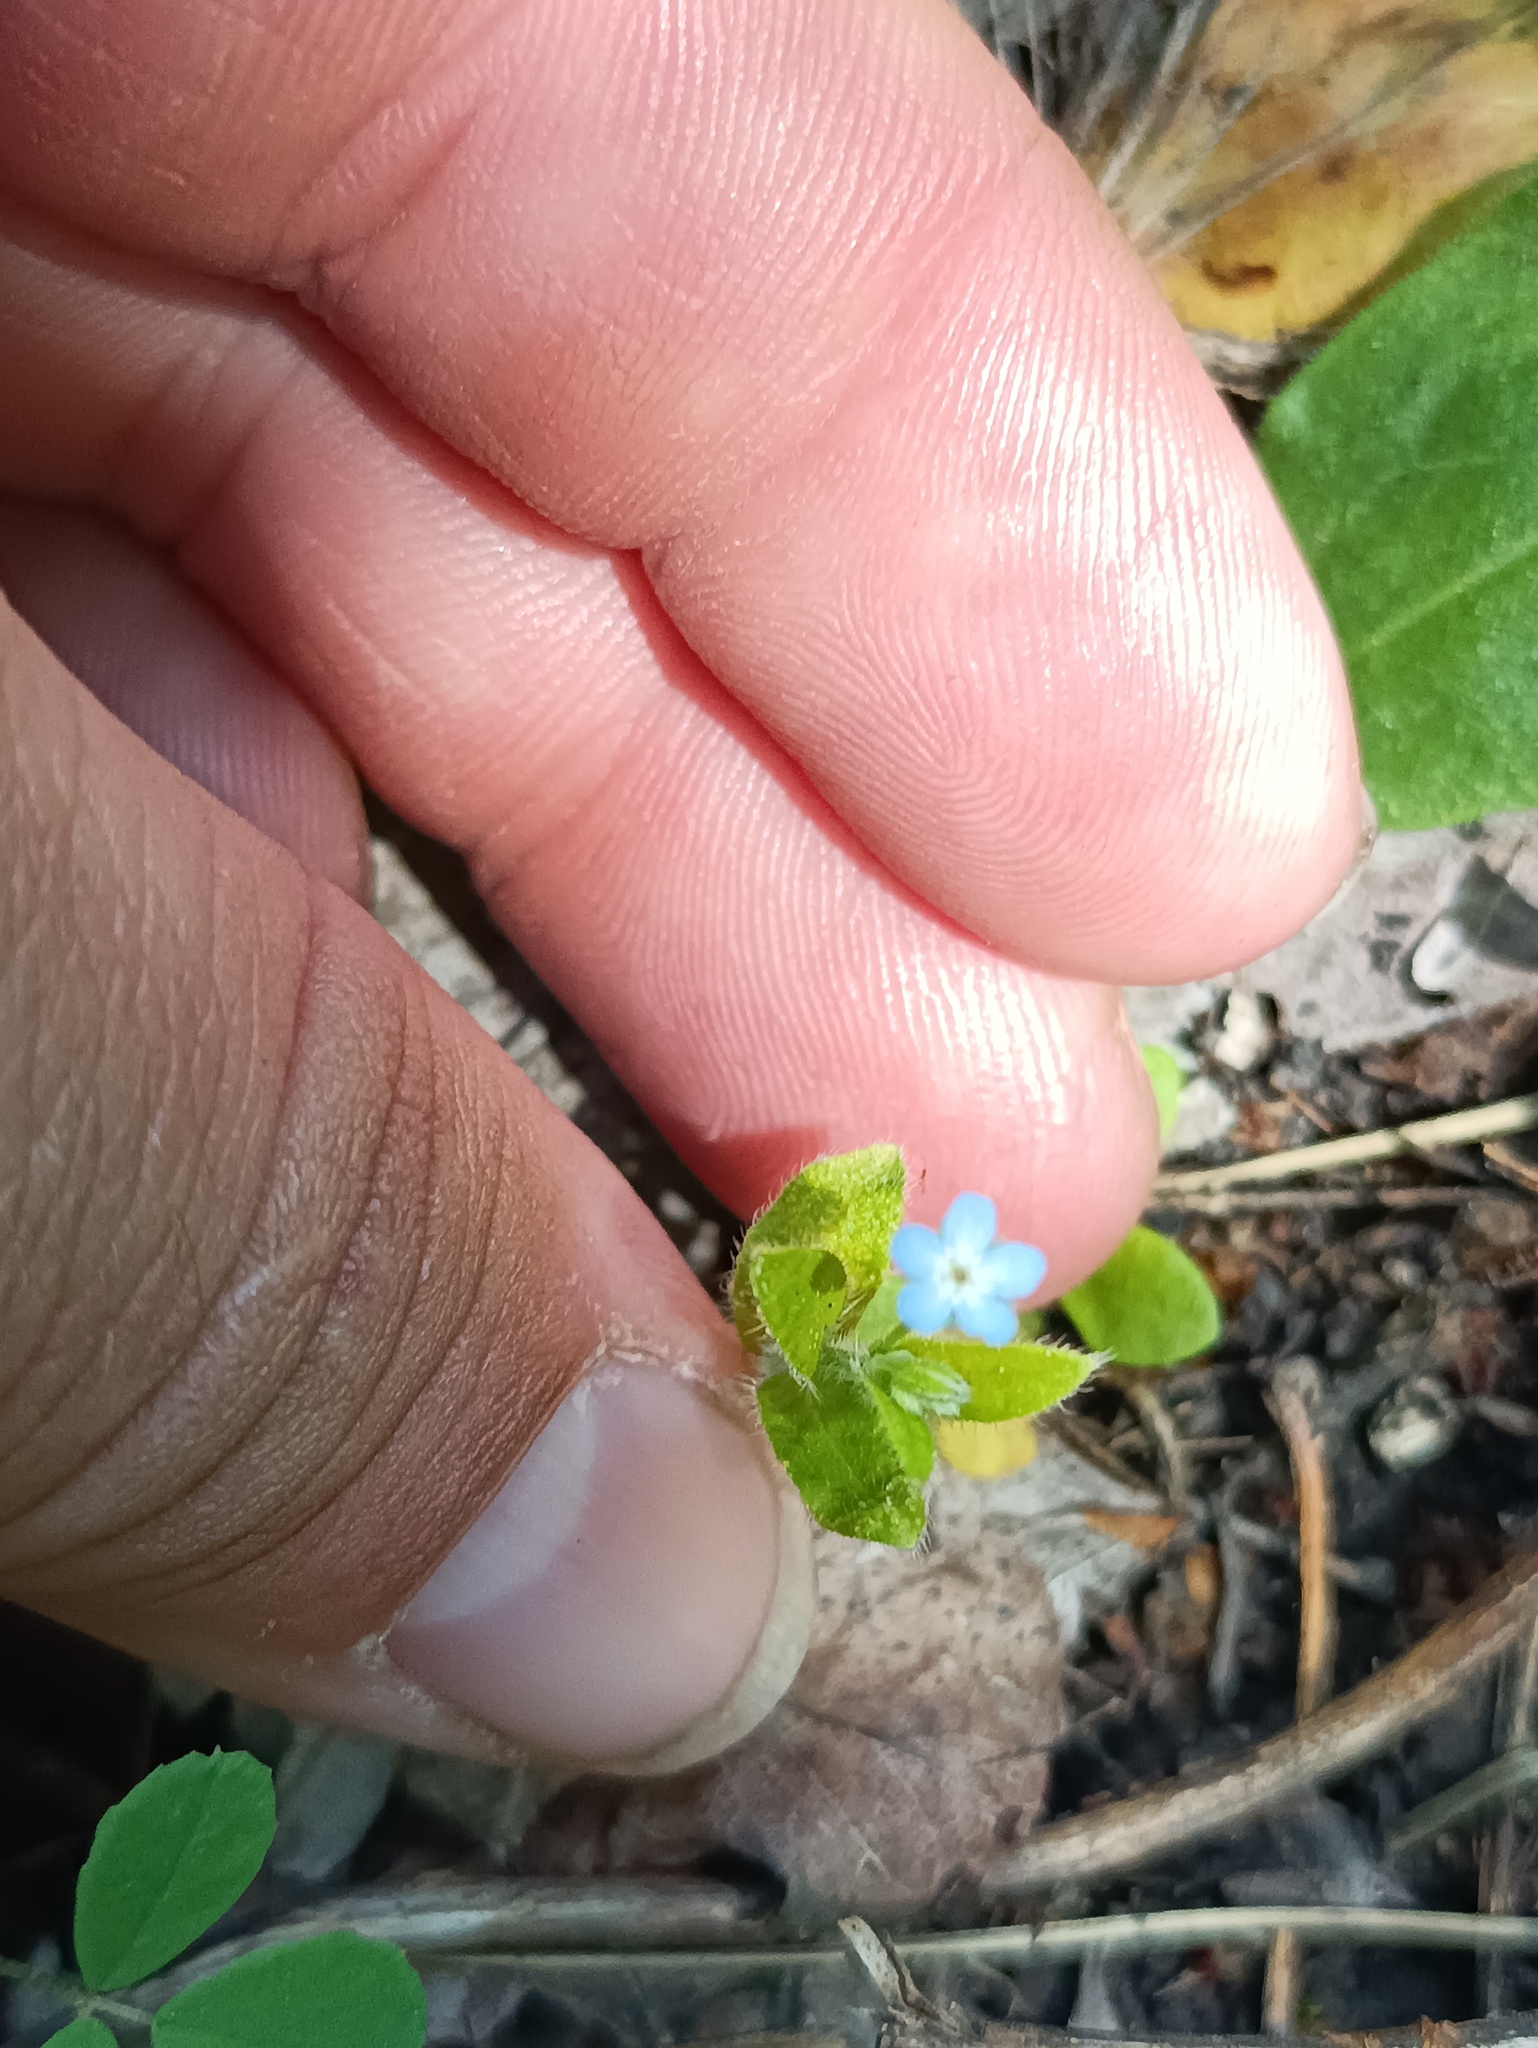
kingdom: Plantae
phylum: Tracheophyta
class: Magnoliopsida
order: Boraginales
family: Boraginaceae
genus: Myosotis
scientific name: Myosotis sparsiflora
